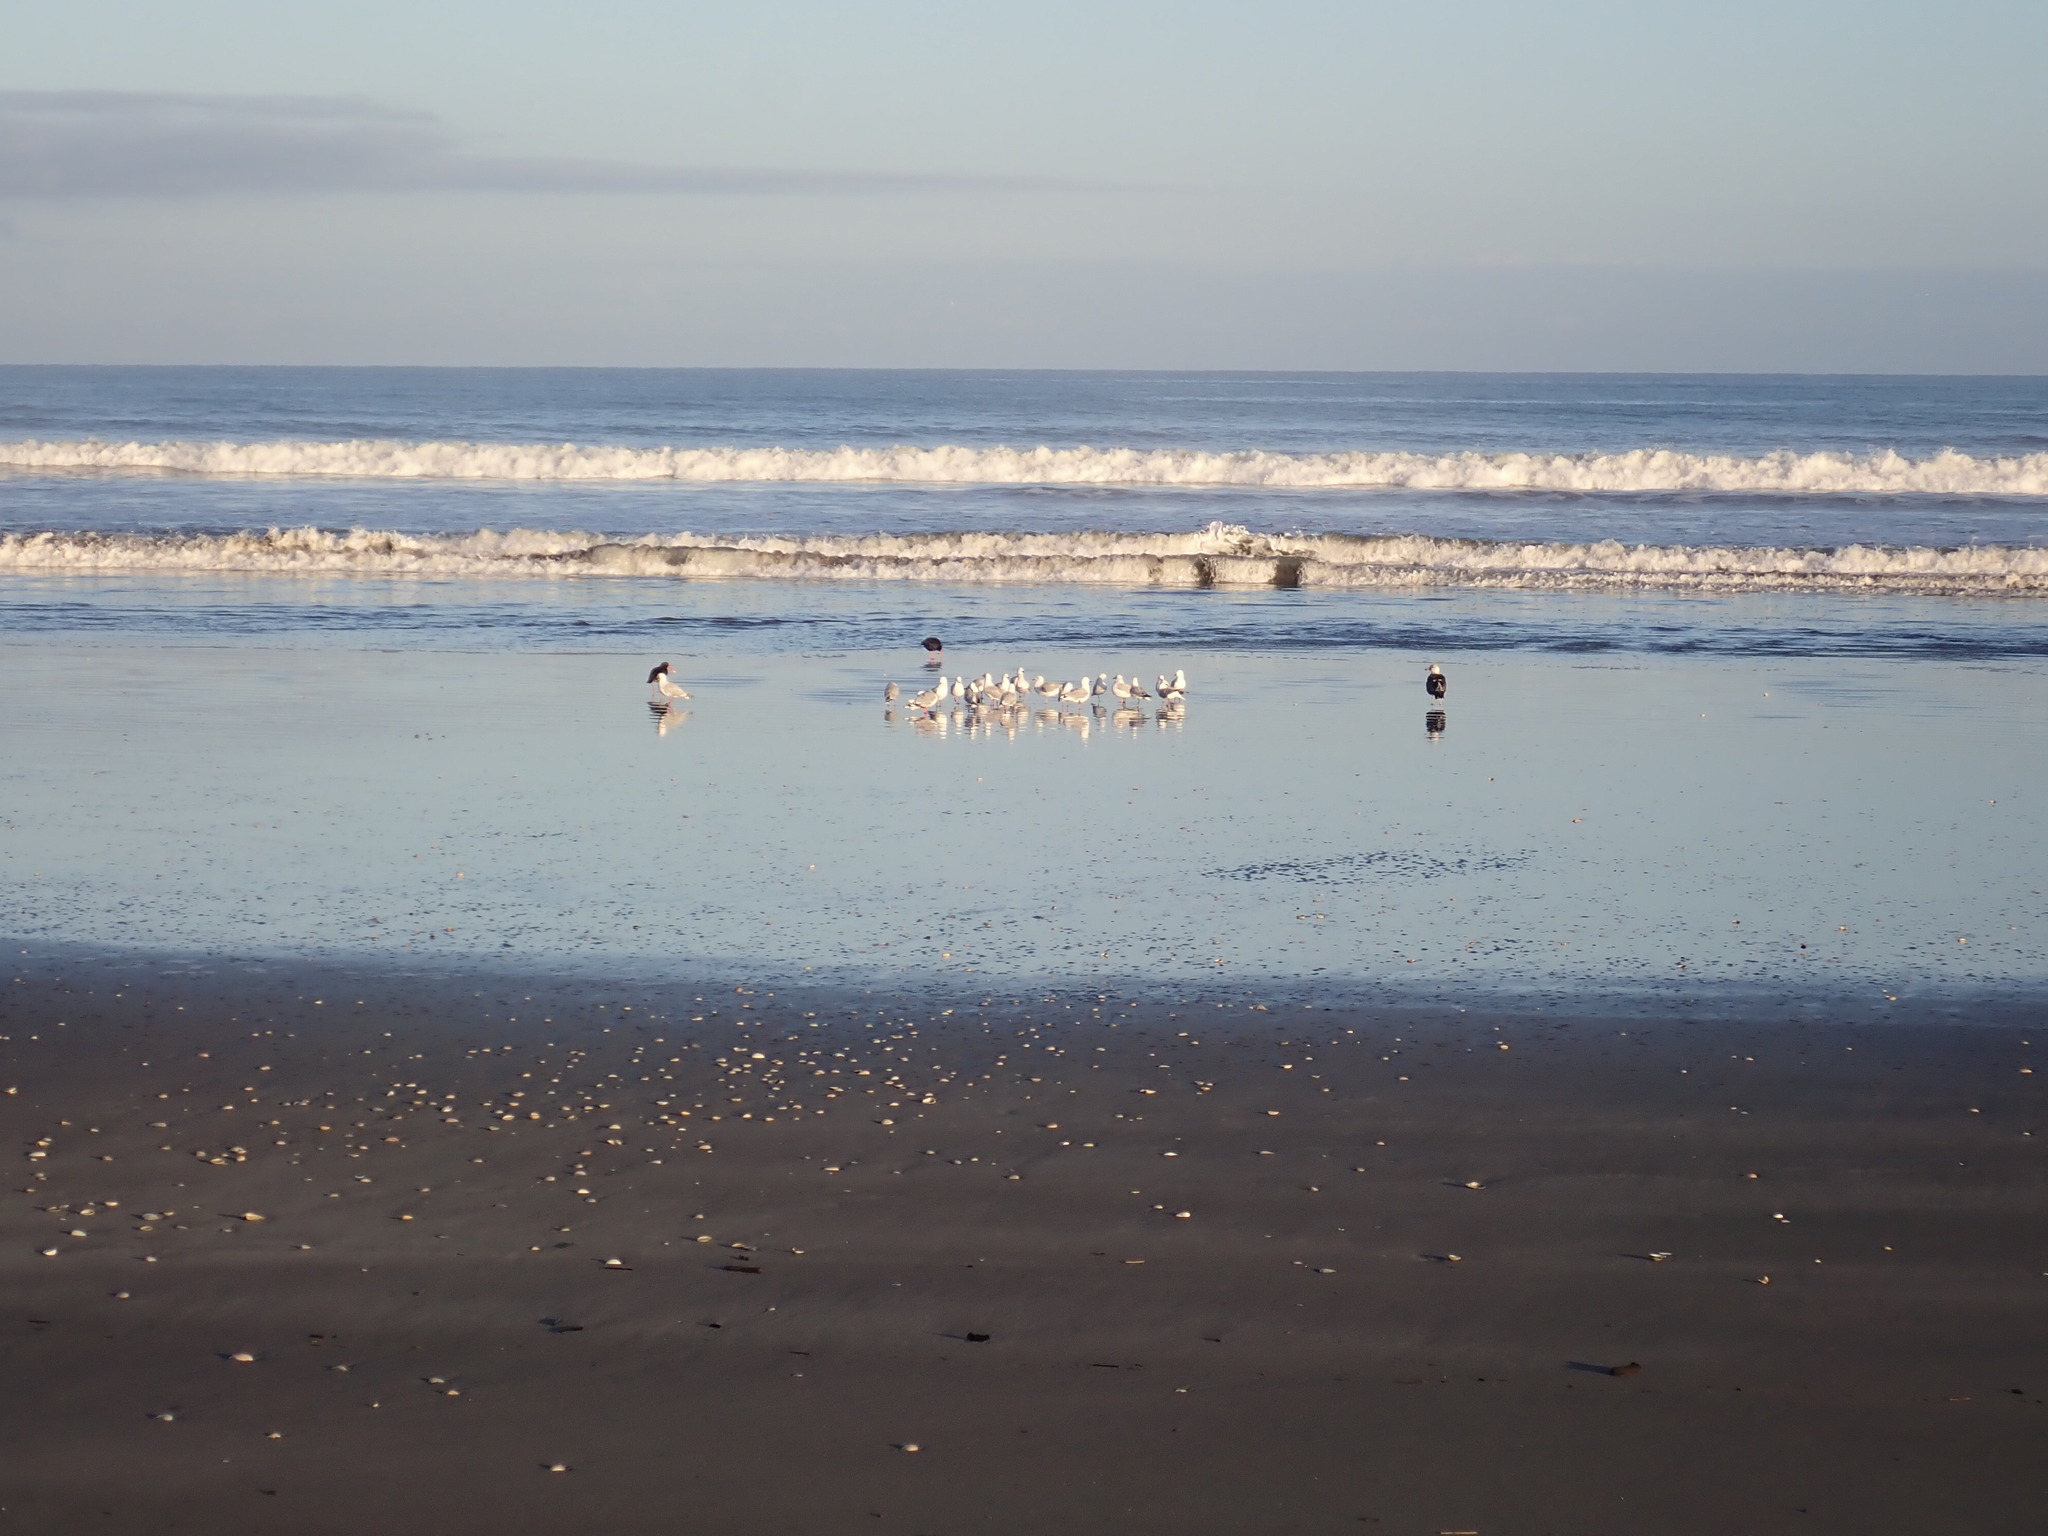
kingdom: Animalia
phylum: Chordata
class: Aves
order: Charadriiformes
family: Haematopodidae
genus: Haematopus
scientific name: Haematopus unicolor
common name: Variable oystercatcher
